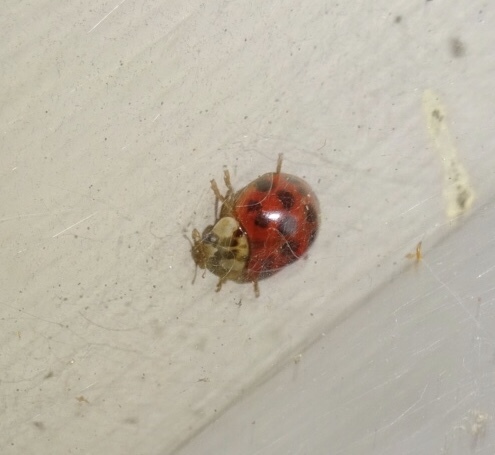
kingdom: Animalia
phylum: Arthropoda
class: Insecta
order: Coleoptera
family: Coccinellidae
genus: Harmonia
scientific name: Harmonia axyridis
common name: Harlequin ladybird
